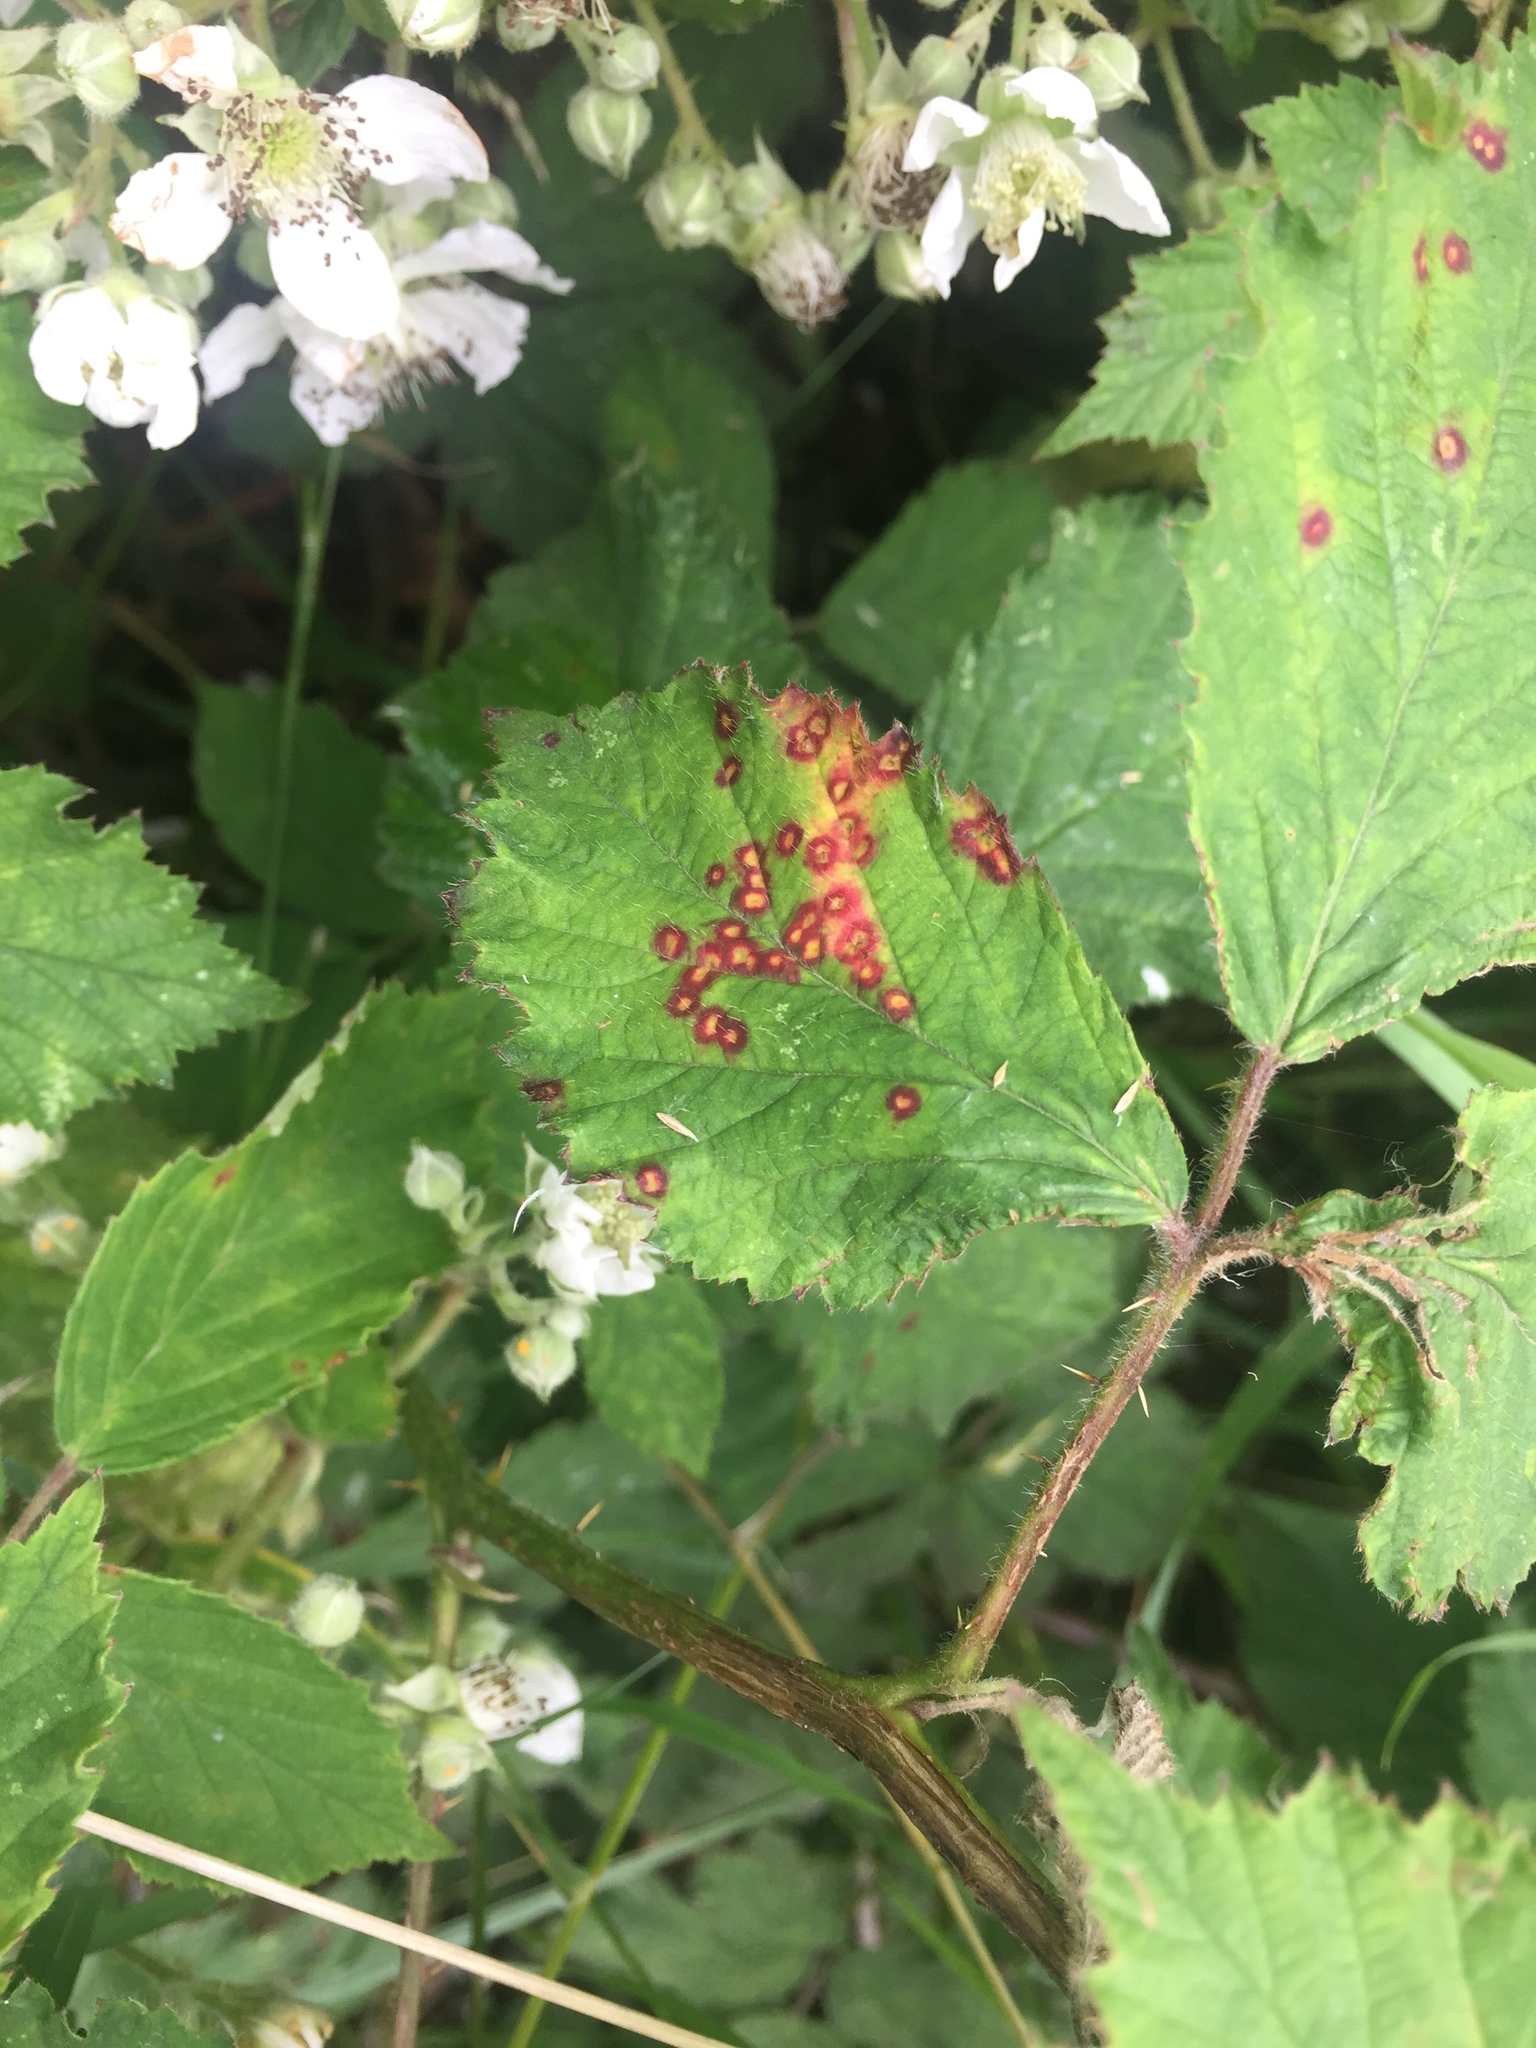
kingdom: Fungi
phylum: Basidiomycota
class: Pucciniomycetes
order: Pucciniales
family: Phragmidiaceae
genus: Phragmidium
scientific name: Phragmidium violaceum
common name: Violet bramble rust
